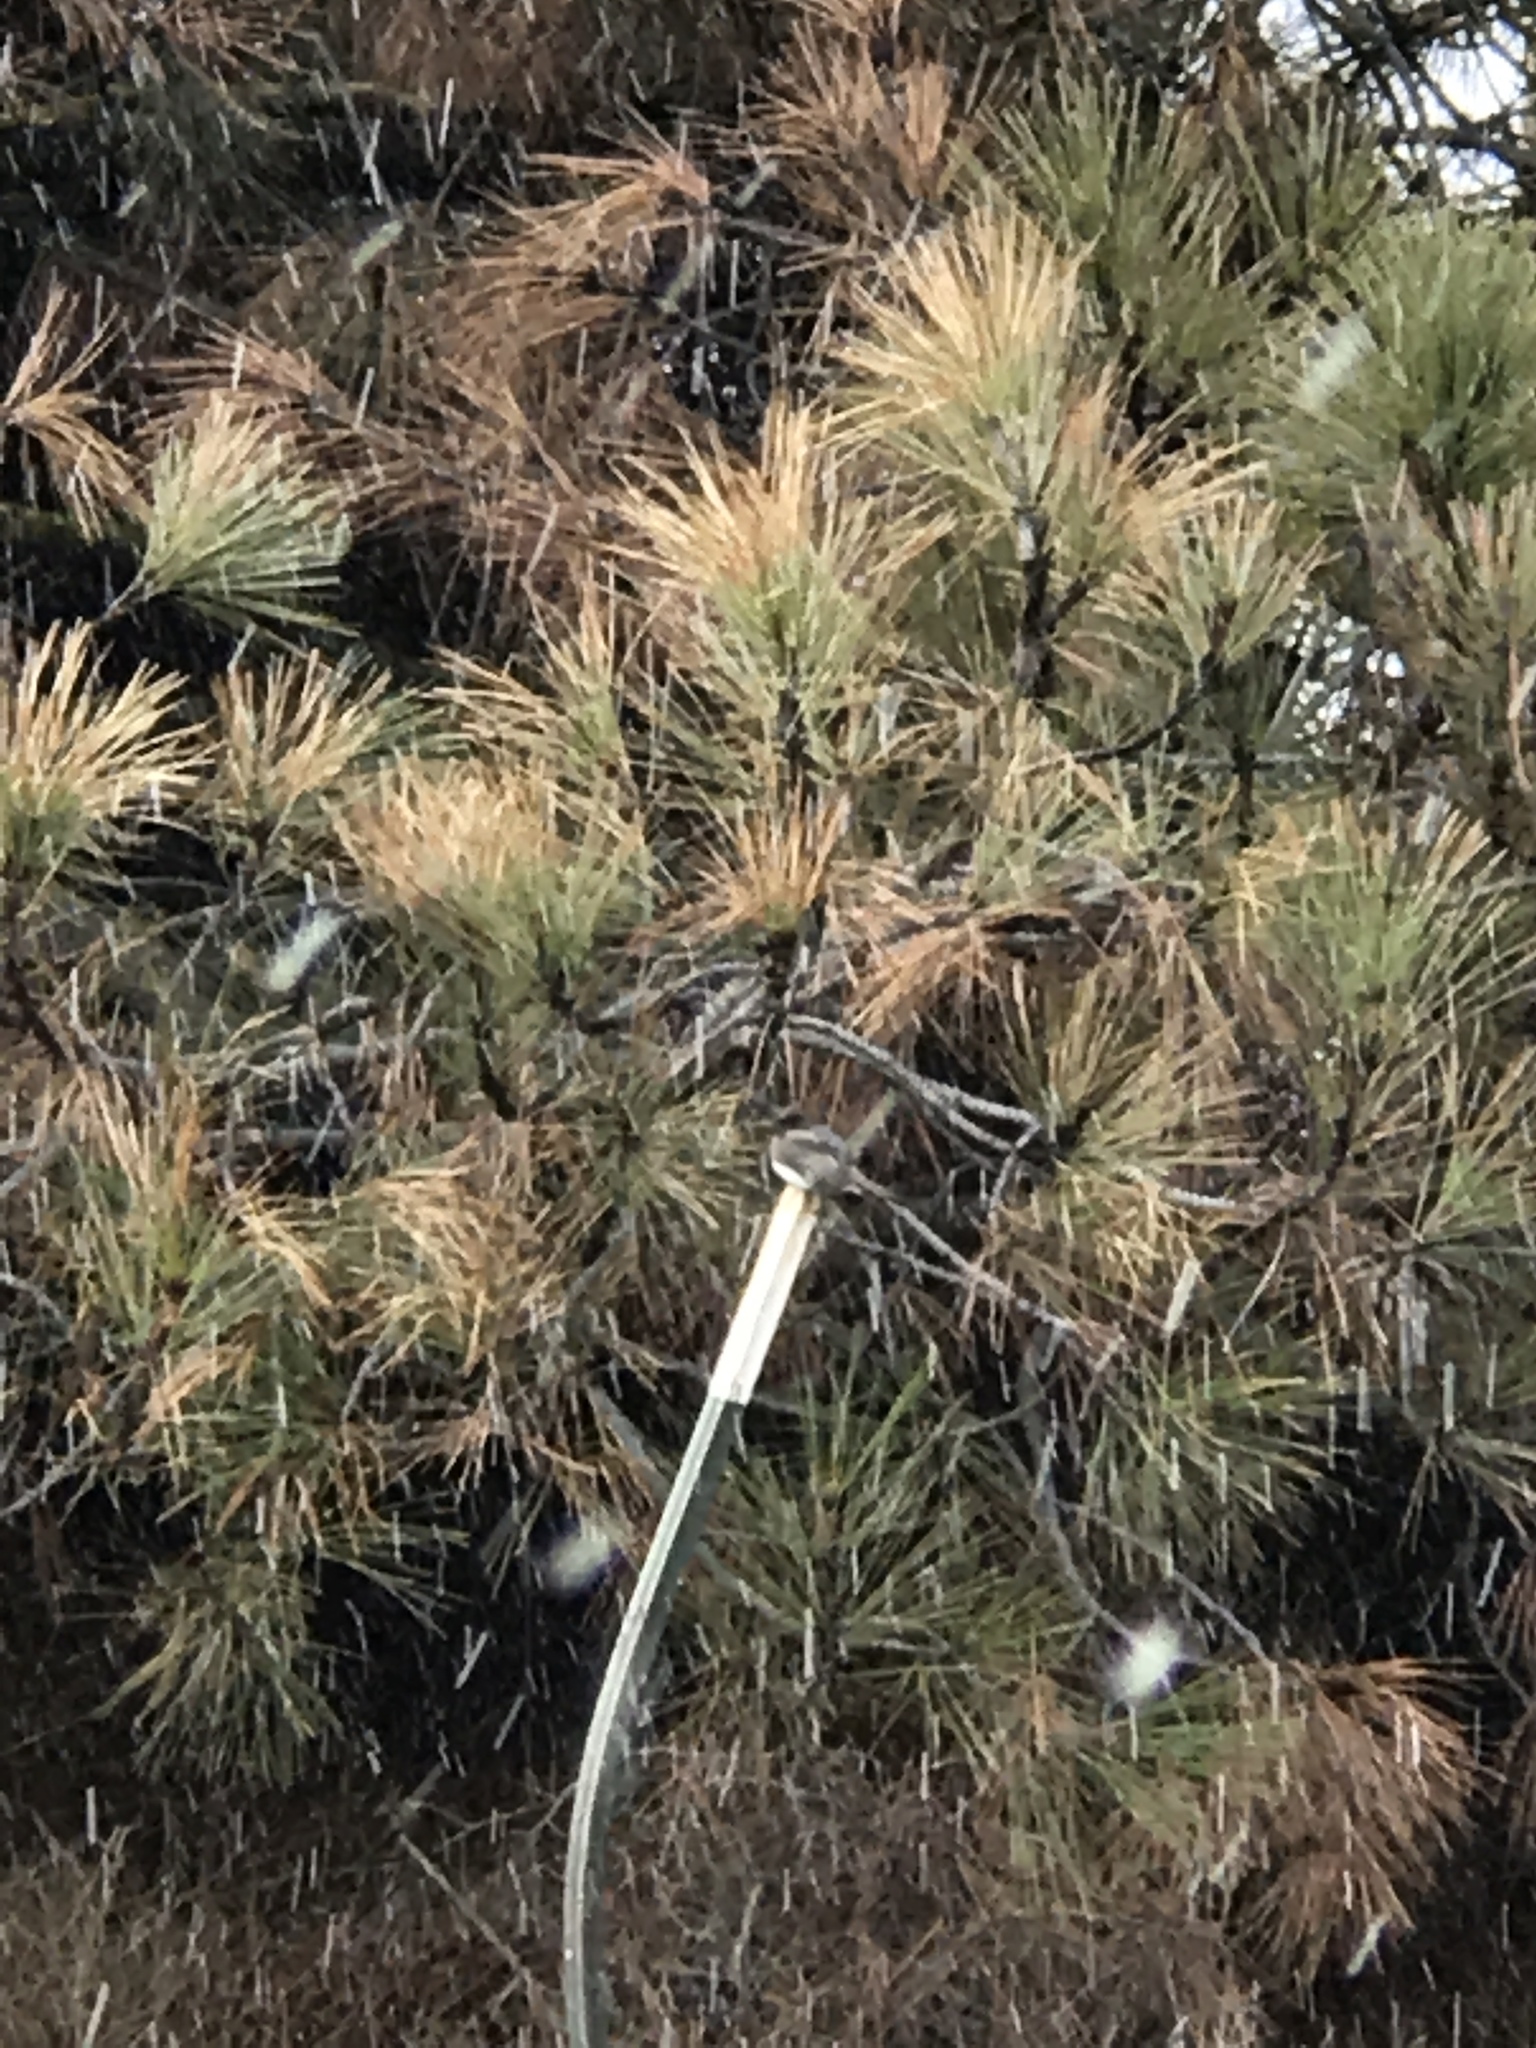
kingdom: Animalia
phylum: Chordata
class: Aves
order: Passeriformes
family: Tyrannidae
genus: Sayornis
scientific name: Sayornis nigricans
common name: Black phoebe
